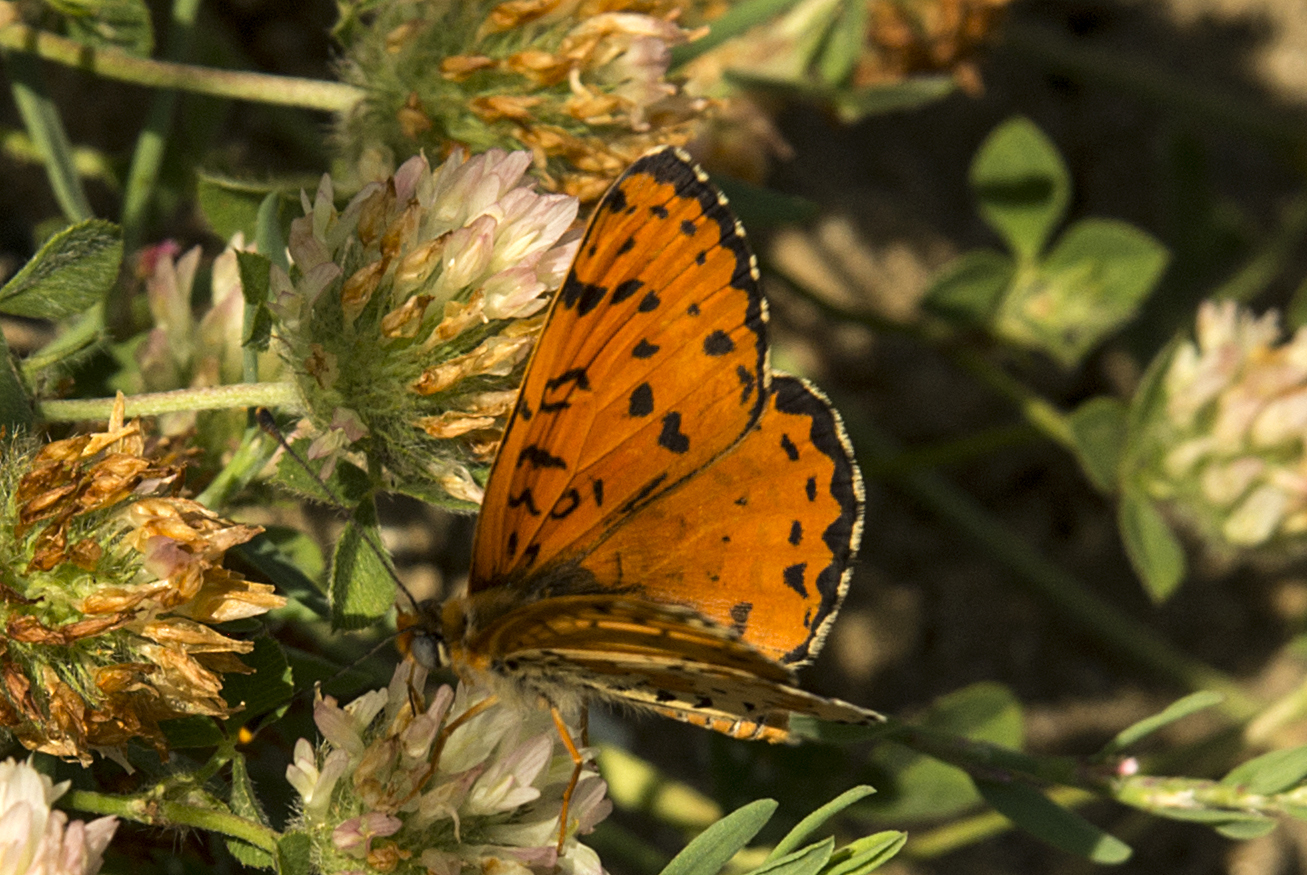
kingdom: Animalia
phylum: Arthropoda
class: Insecta
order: Lepidoptera
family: Nymphalidae
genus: Melitaea
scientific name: Melitaea didyma
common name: Spotted fritillary
